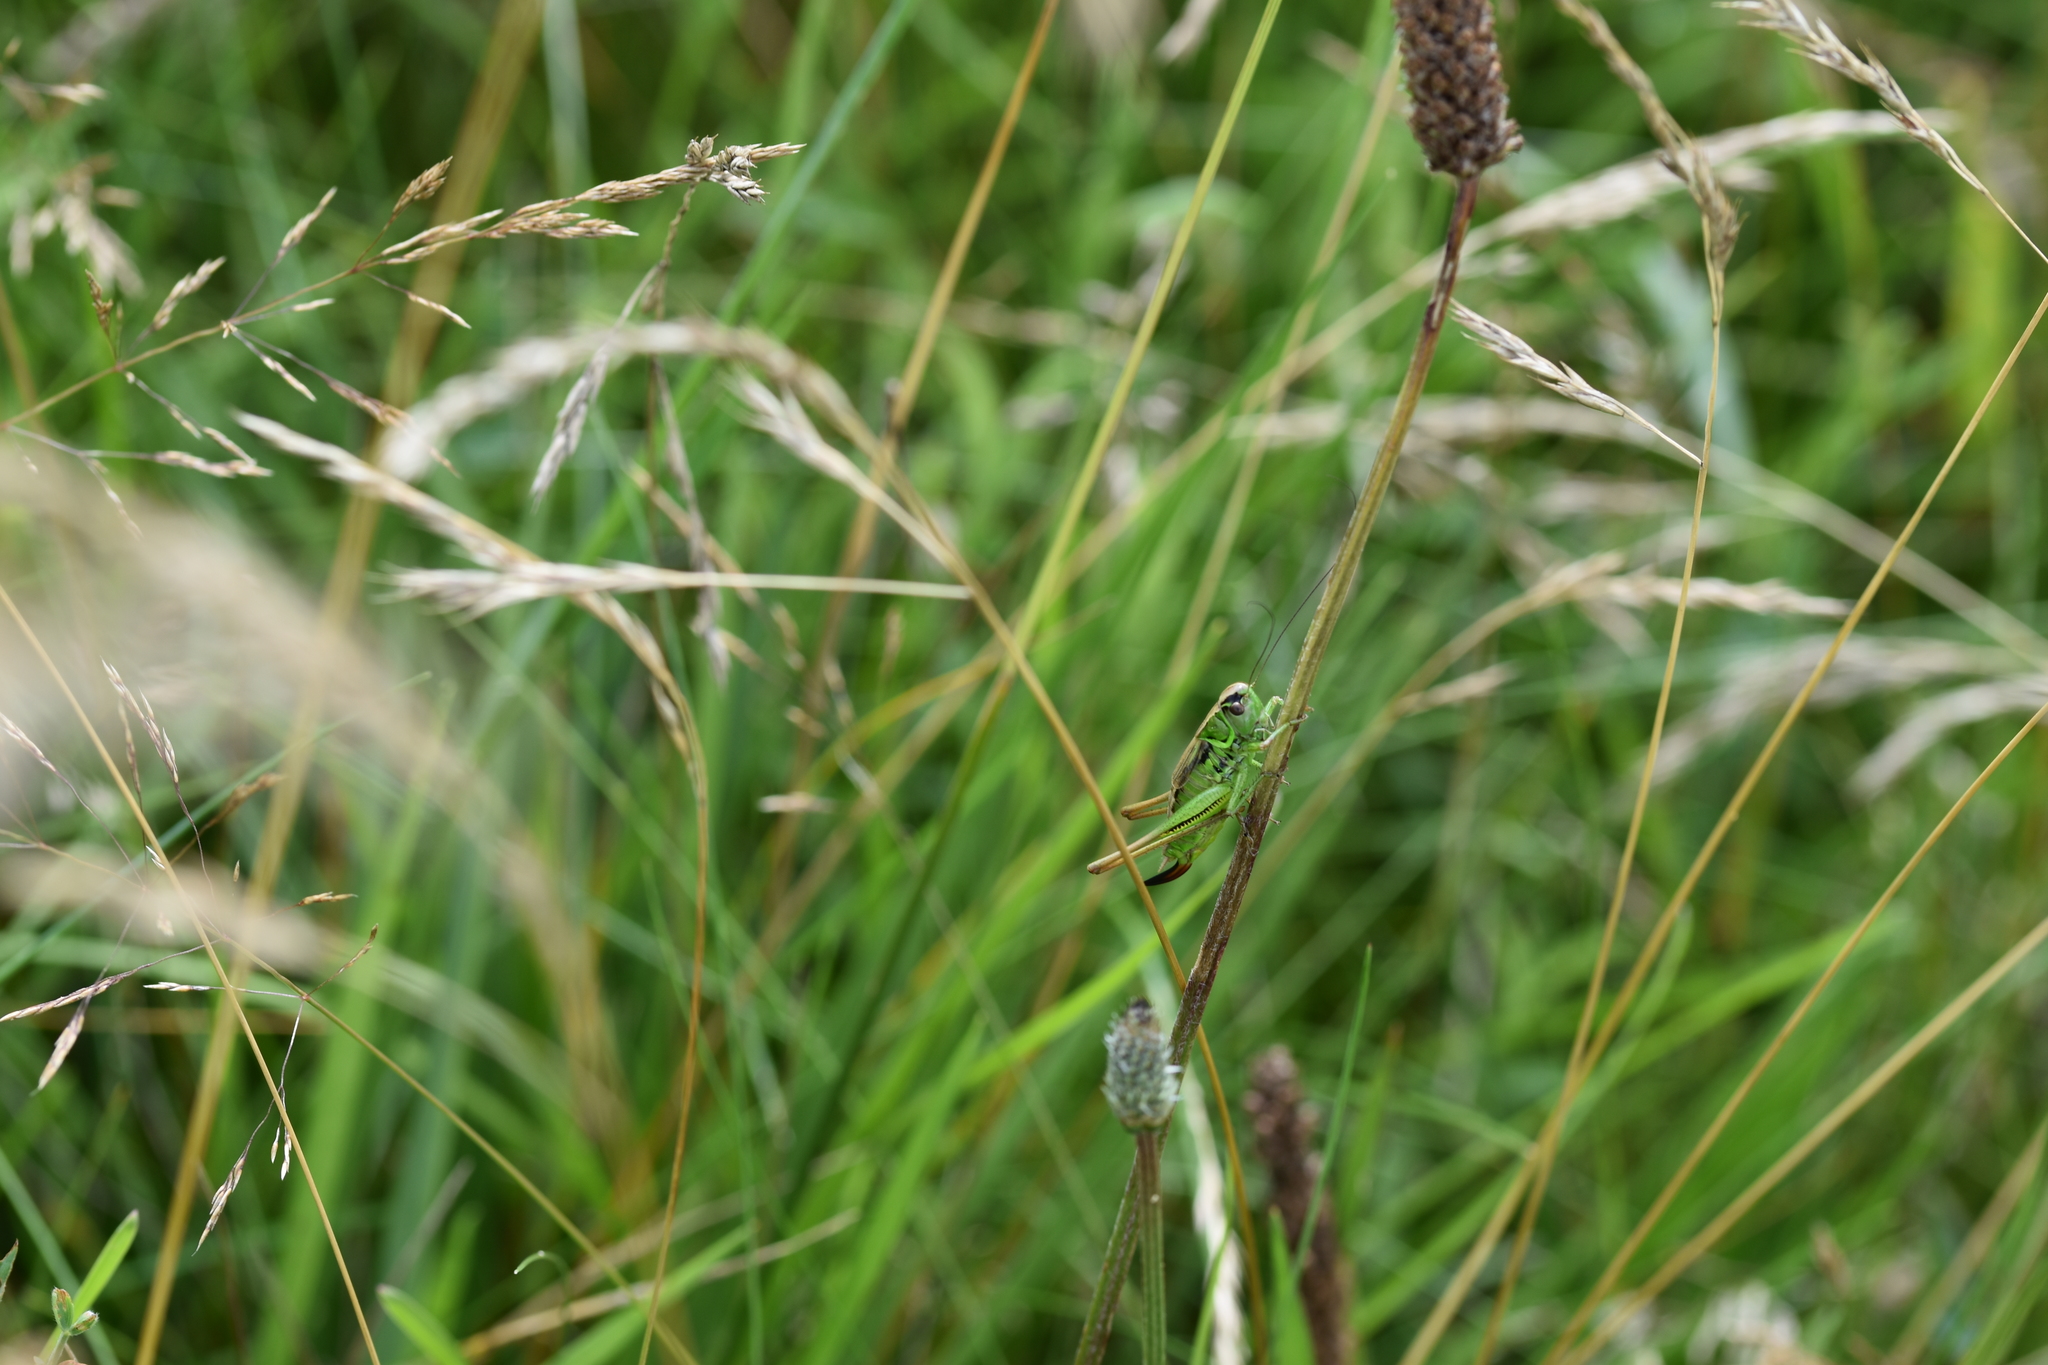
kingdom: Animalia
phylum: Arthropoda
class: Insecta
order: Orthoptera
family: Tettigoniidae
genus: Roeseliana
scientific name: Roeseliana roeselii
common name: Roesel's bush cricket
